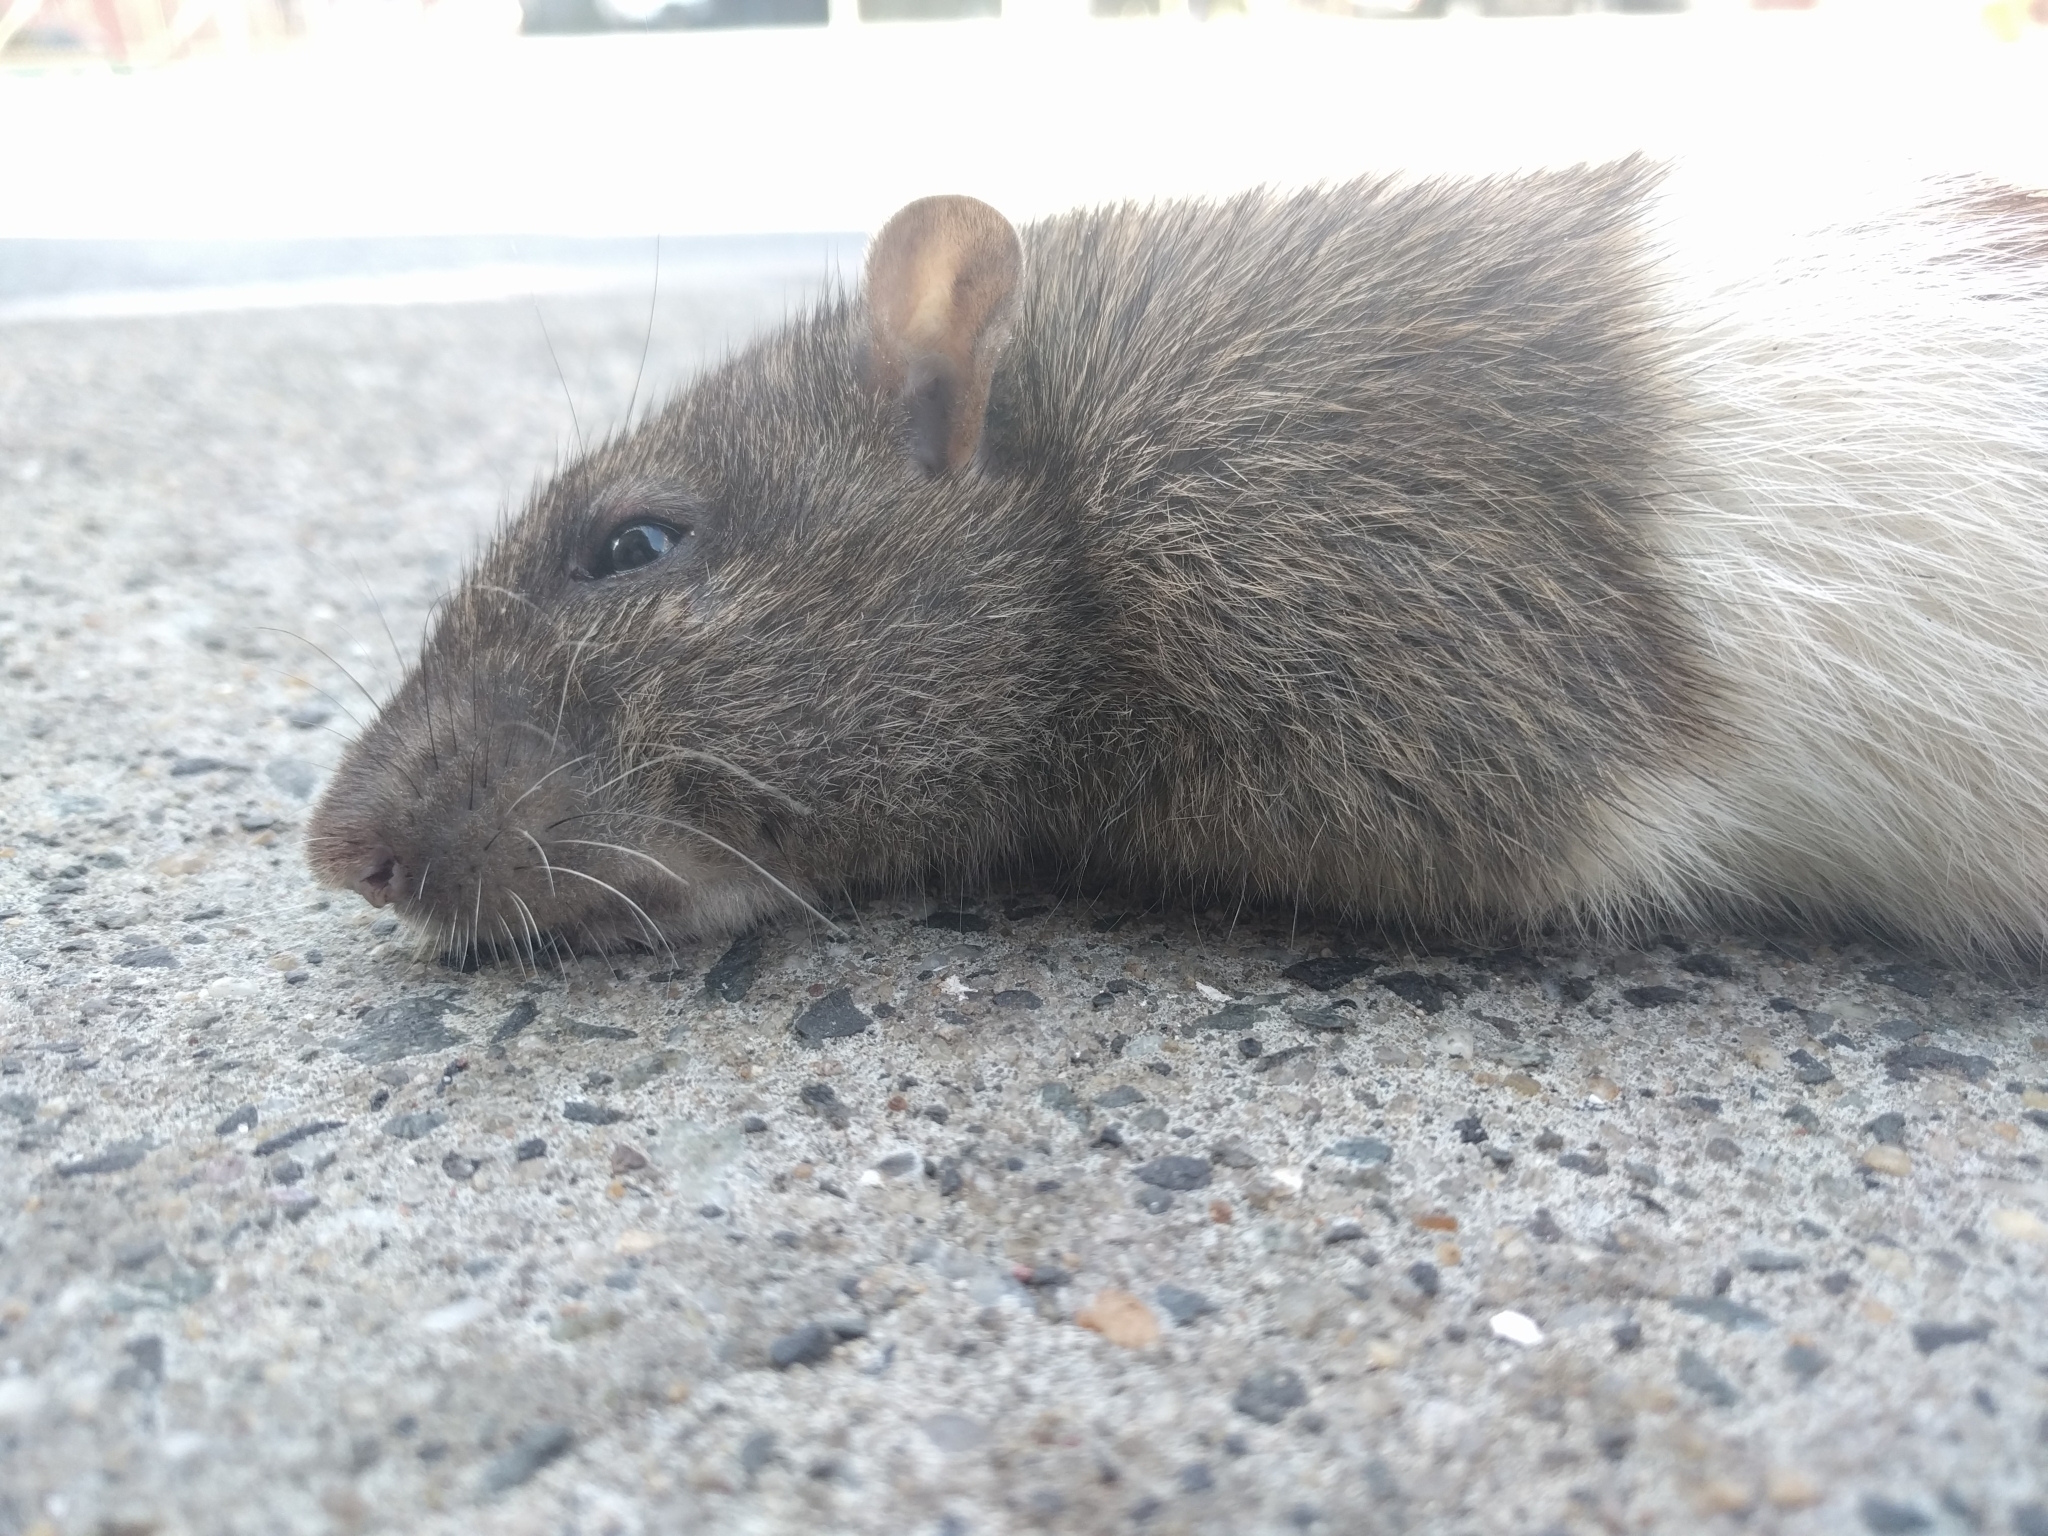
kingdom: Animalia
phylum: Chordata
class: Mammalia
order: Rodentia
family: Muridae
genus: Rattus
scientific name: Rattus norvegicus
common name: Brown rat
